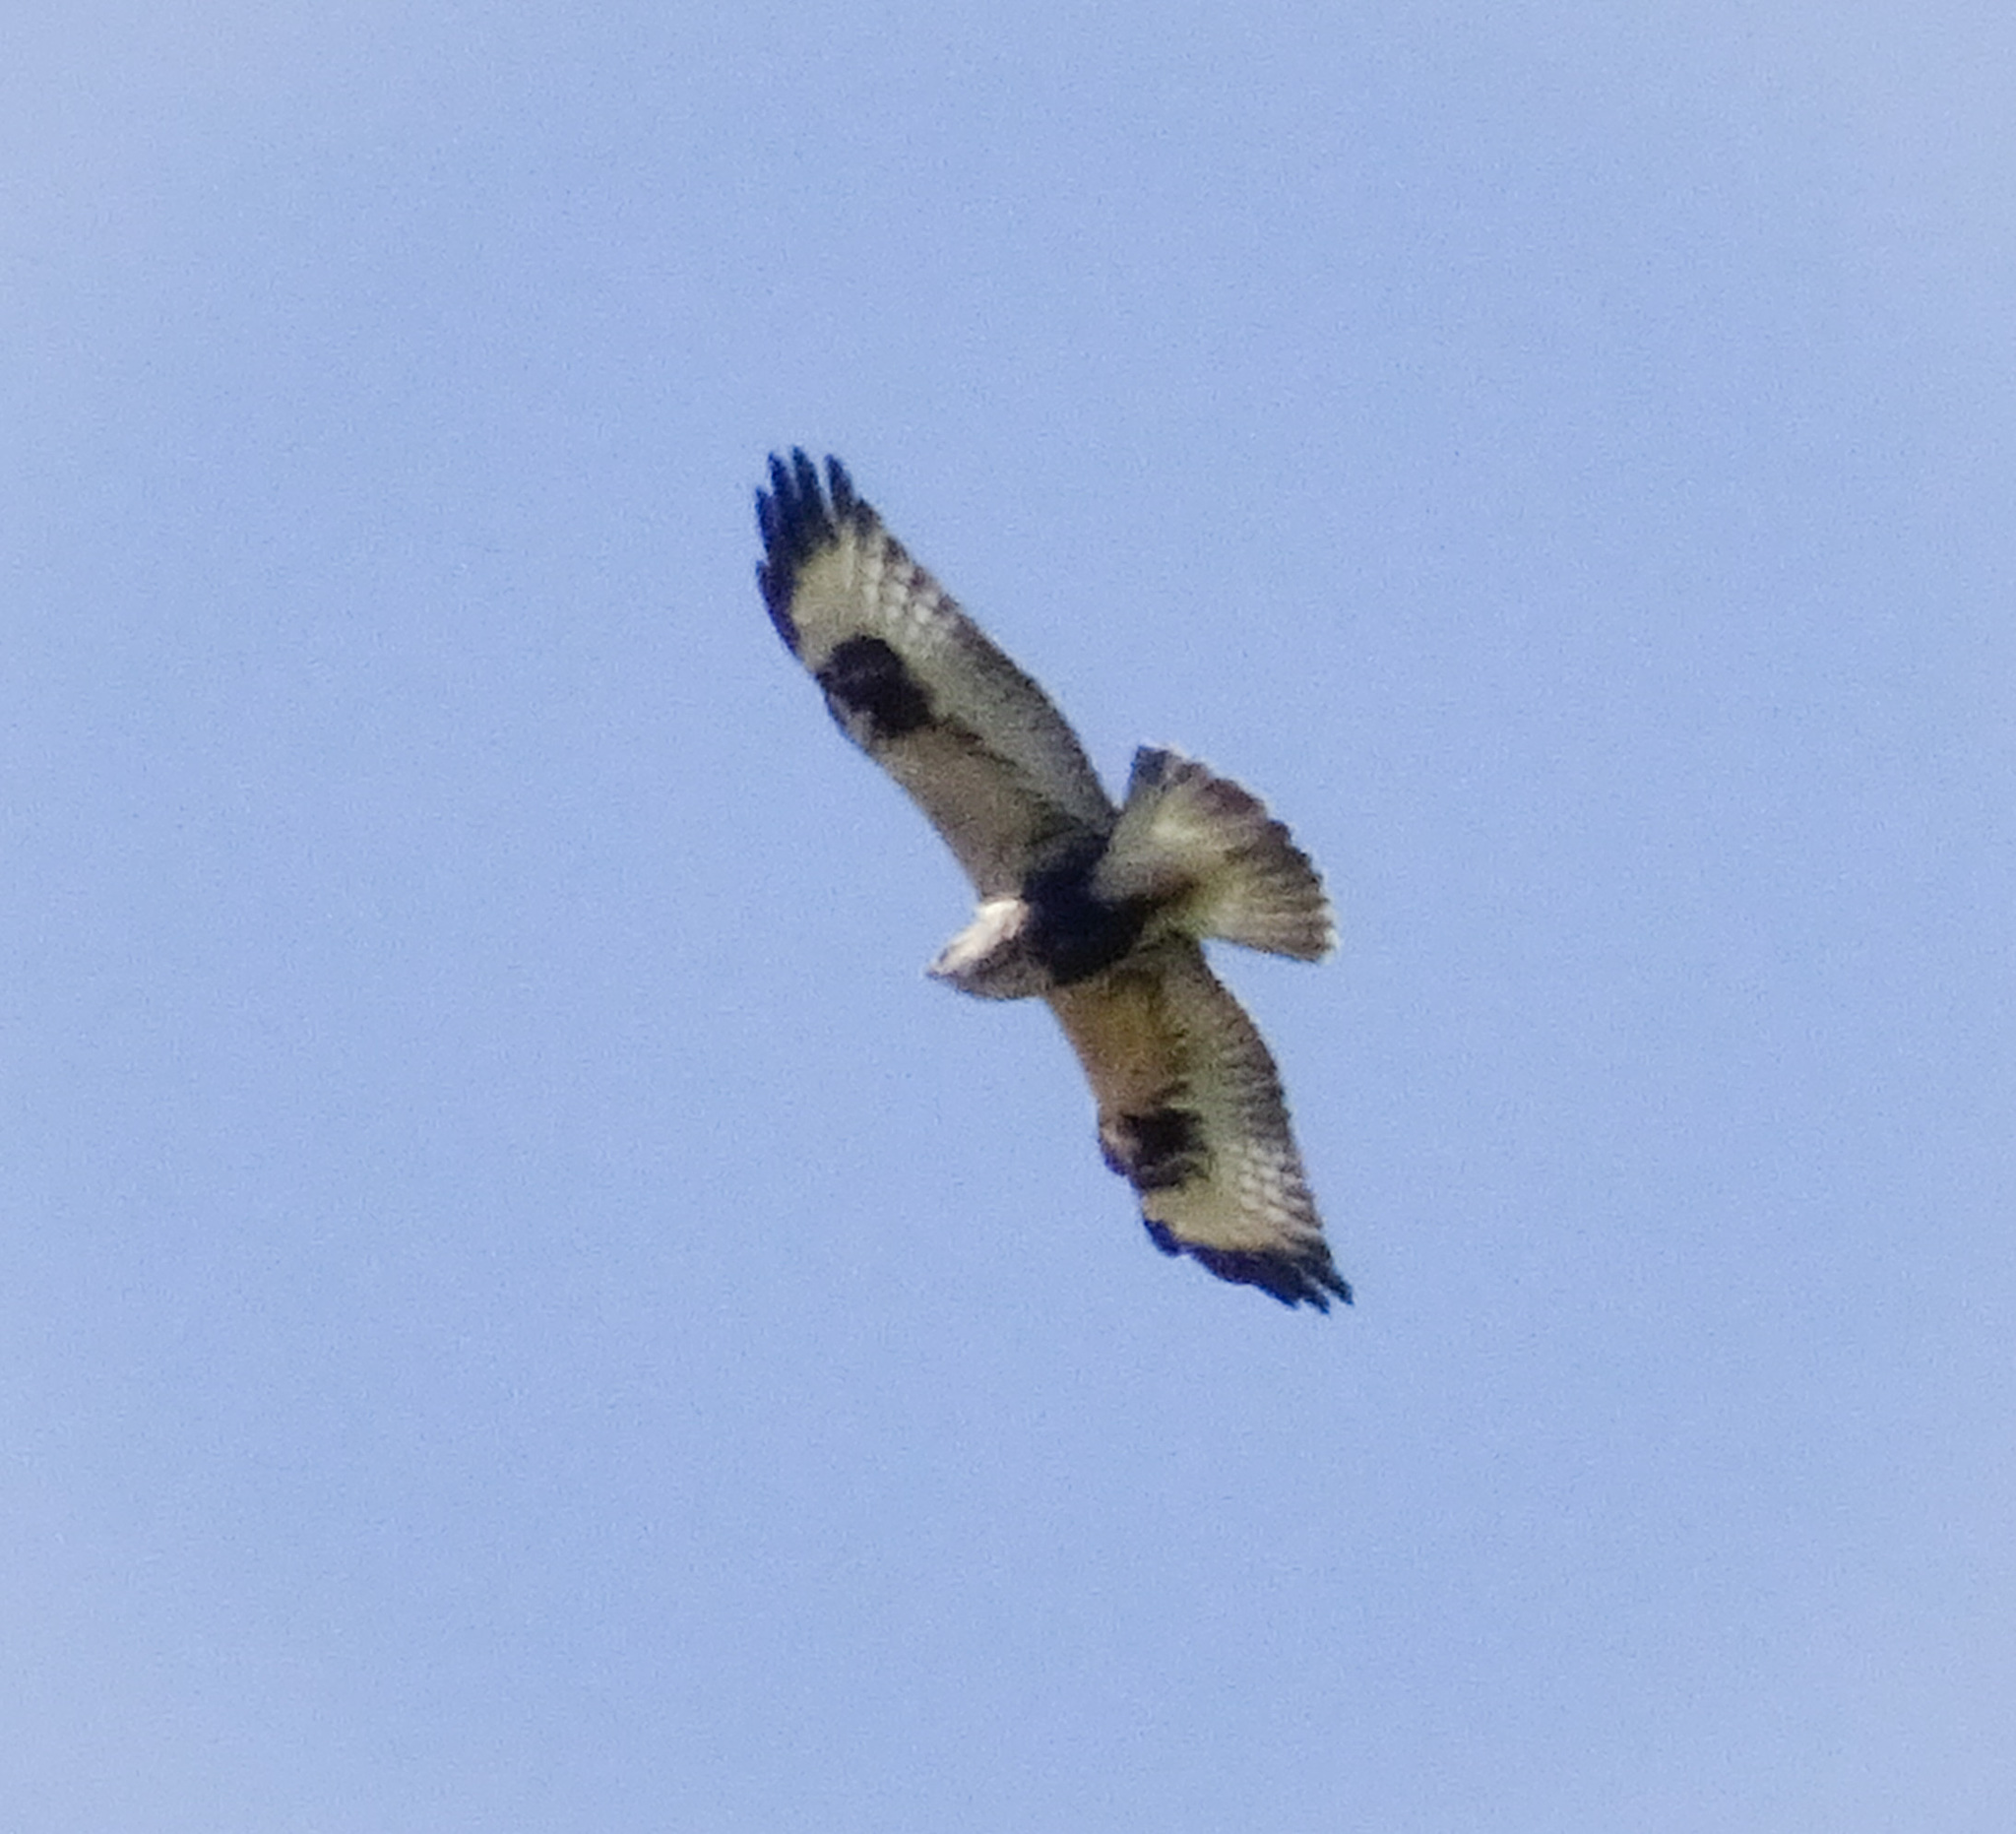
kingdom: Animalia
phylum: Chordata
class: Aves
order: Accipitriformes
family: Accipitridae
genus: Buteo
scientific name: Buteo lagopus
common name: Rough-legged buzzard
